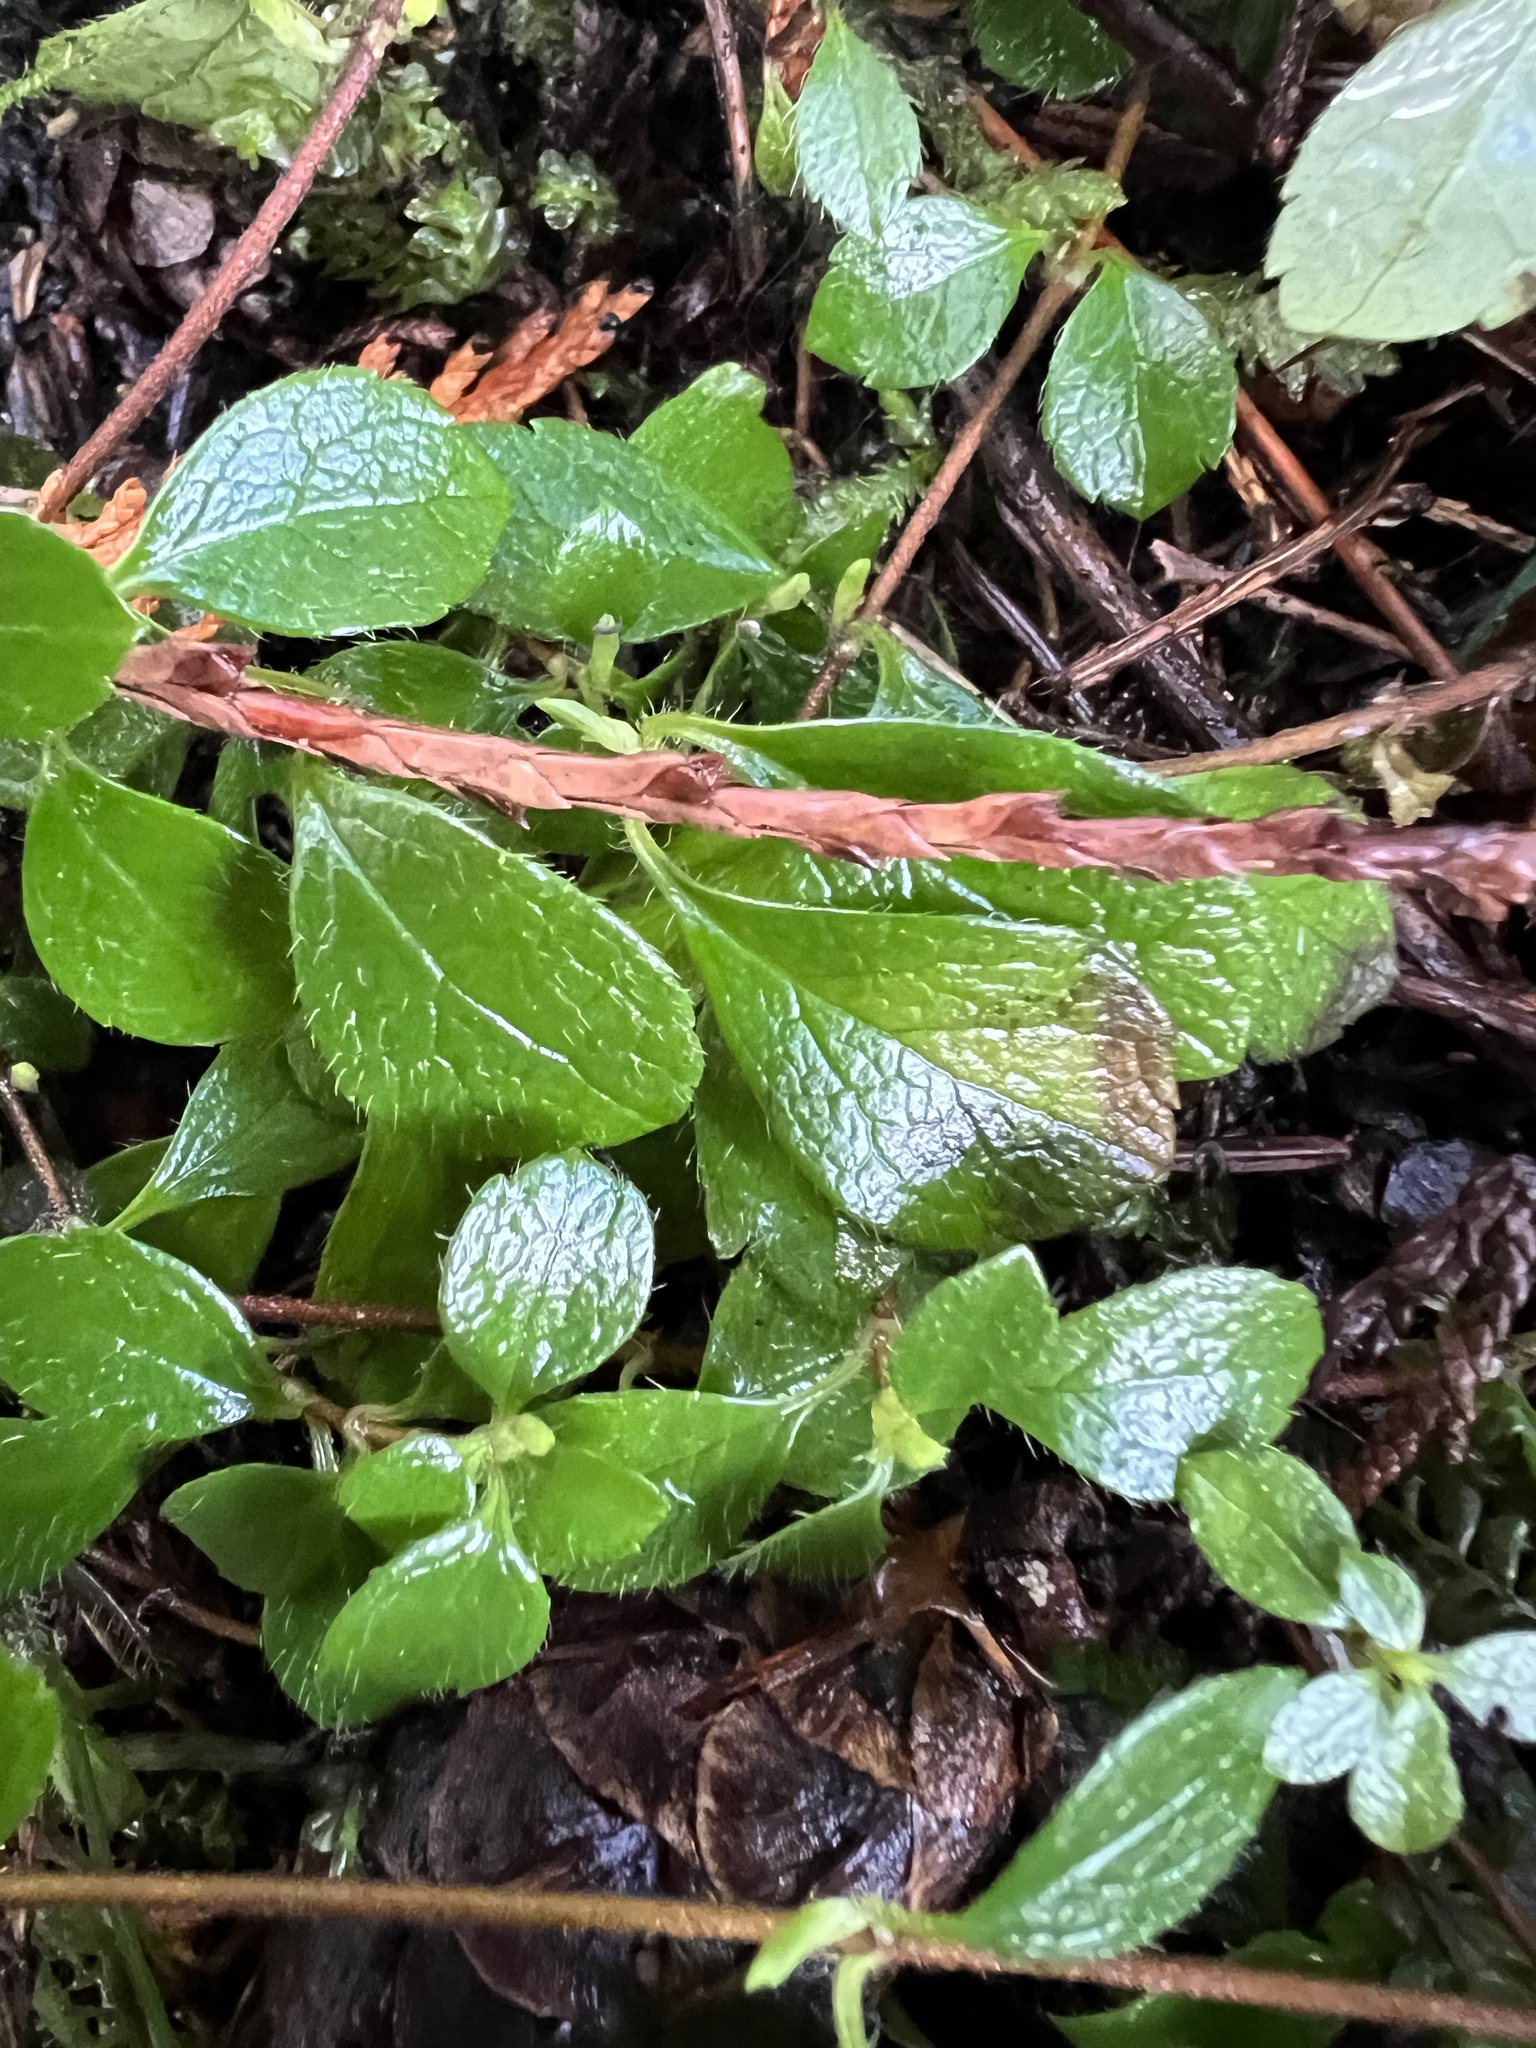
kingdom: Plantae
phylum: Tracheophyta
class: Magnoliopsida
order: Dipsacales
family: Caprifoliaceae
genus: Linnaea
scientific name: Linnaea borealis
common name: Twinflower
